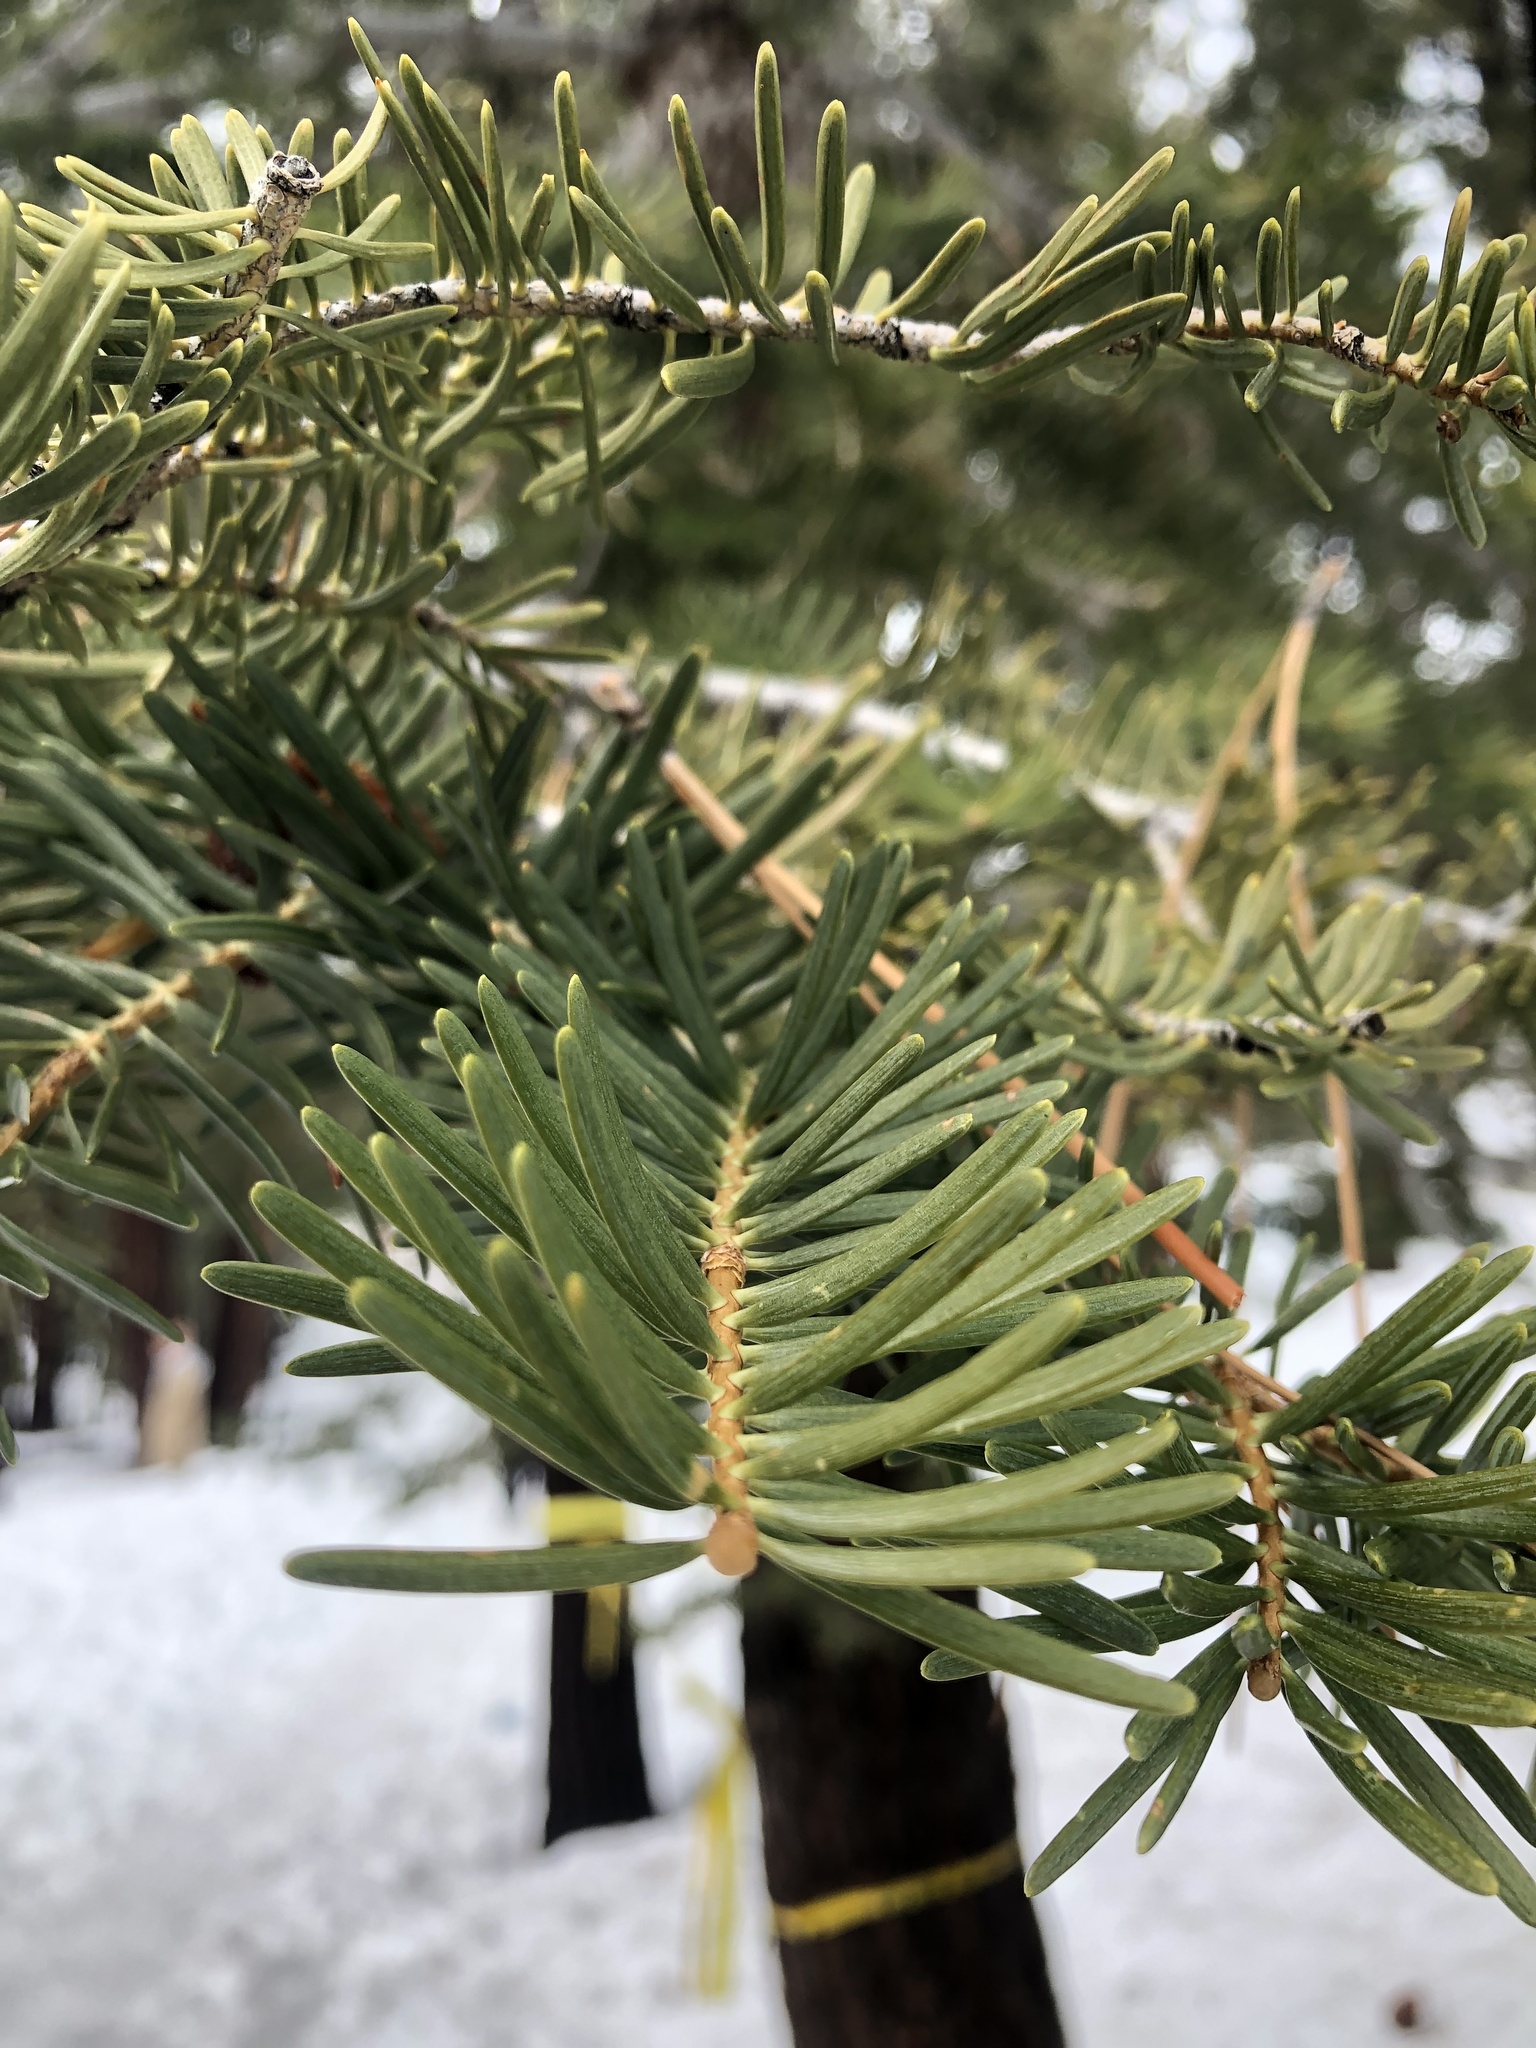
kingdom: Plantae
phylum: Tracheophyta
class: Pinopsida
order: Pinales
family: Pinaceae
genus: Abies
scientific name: Abies concolor
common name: Colorado fir
